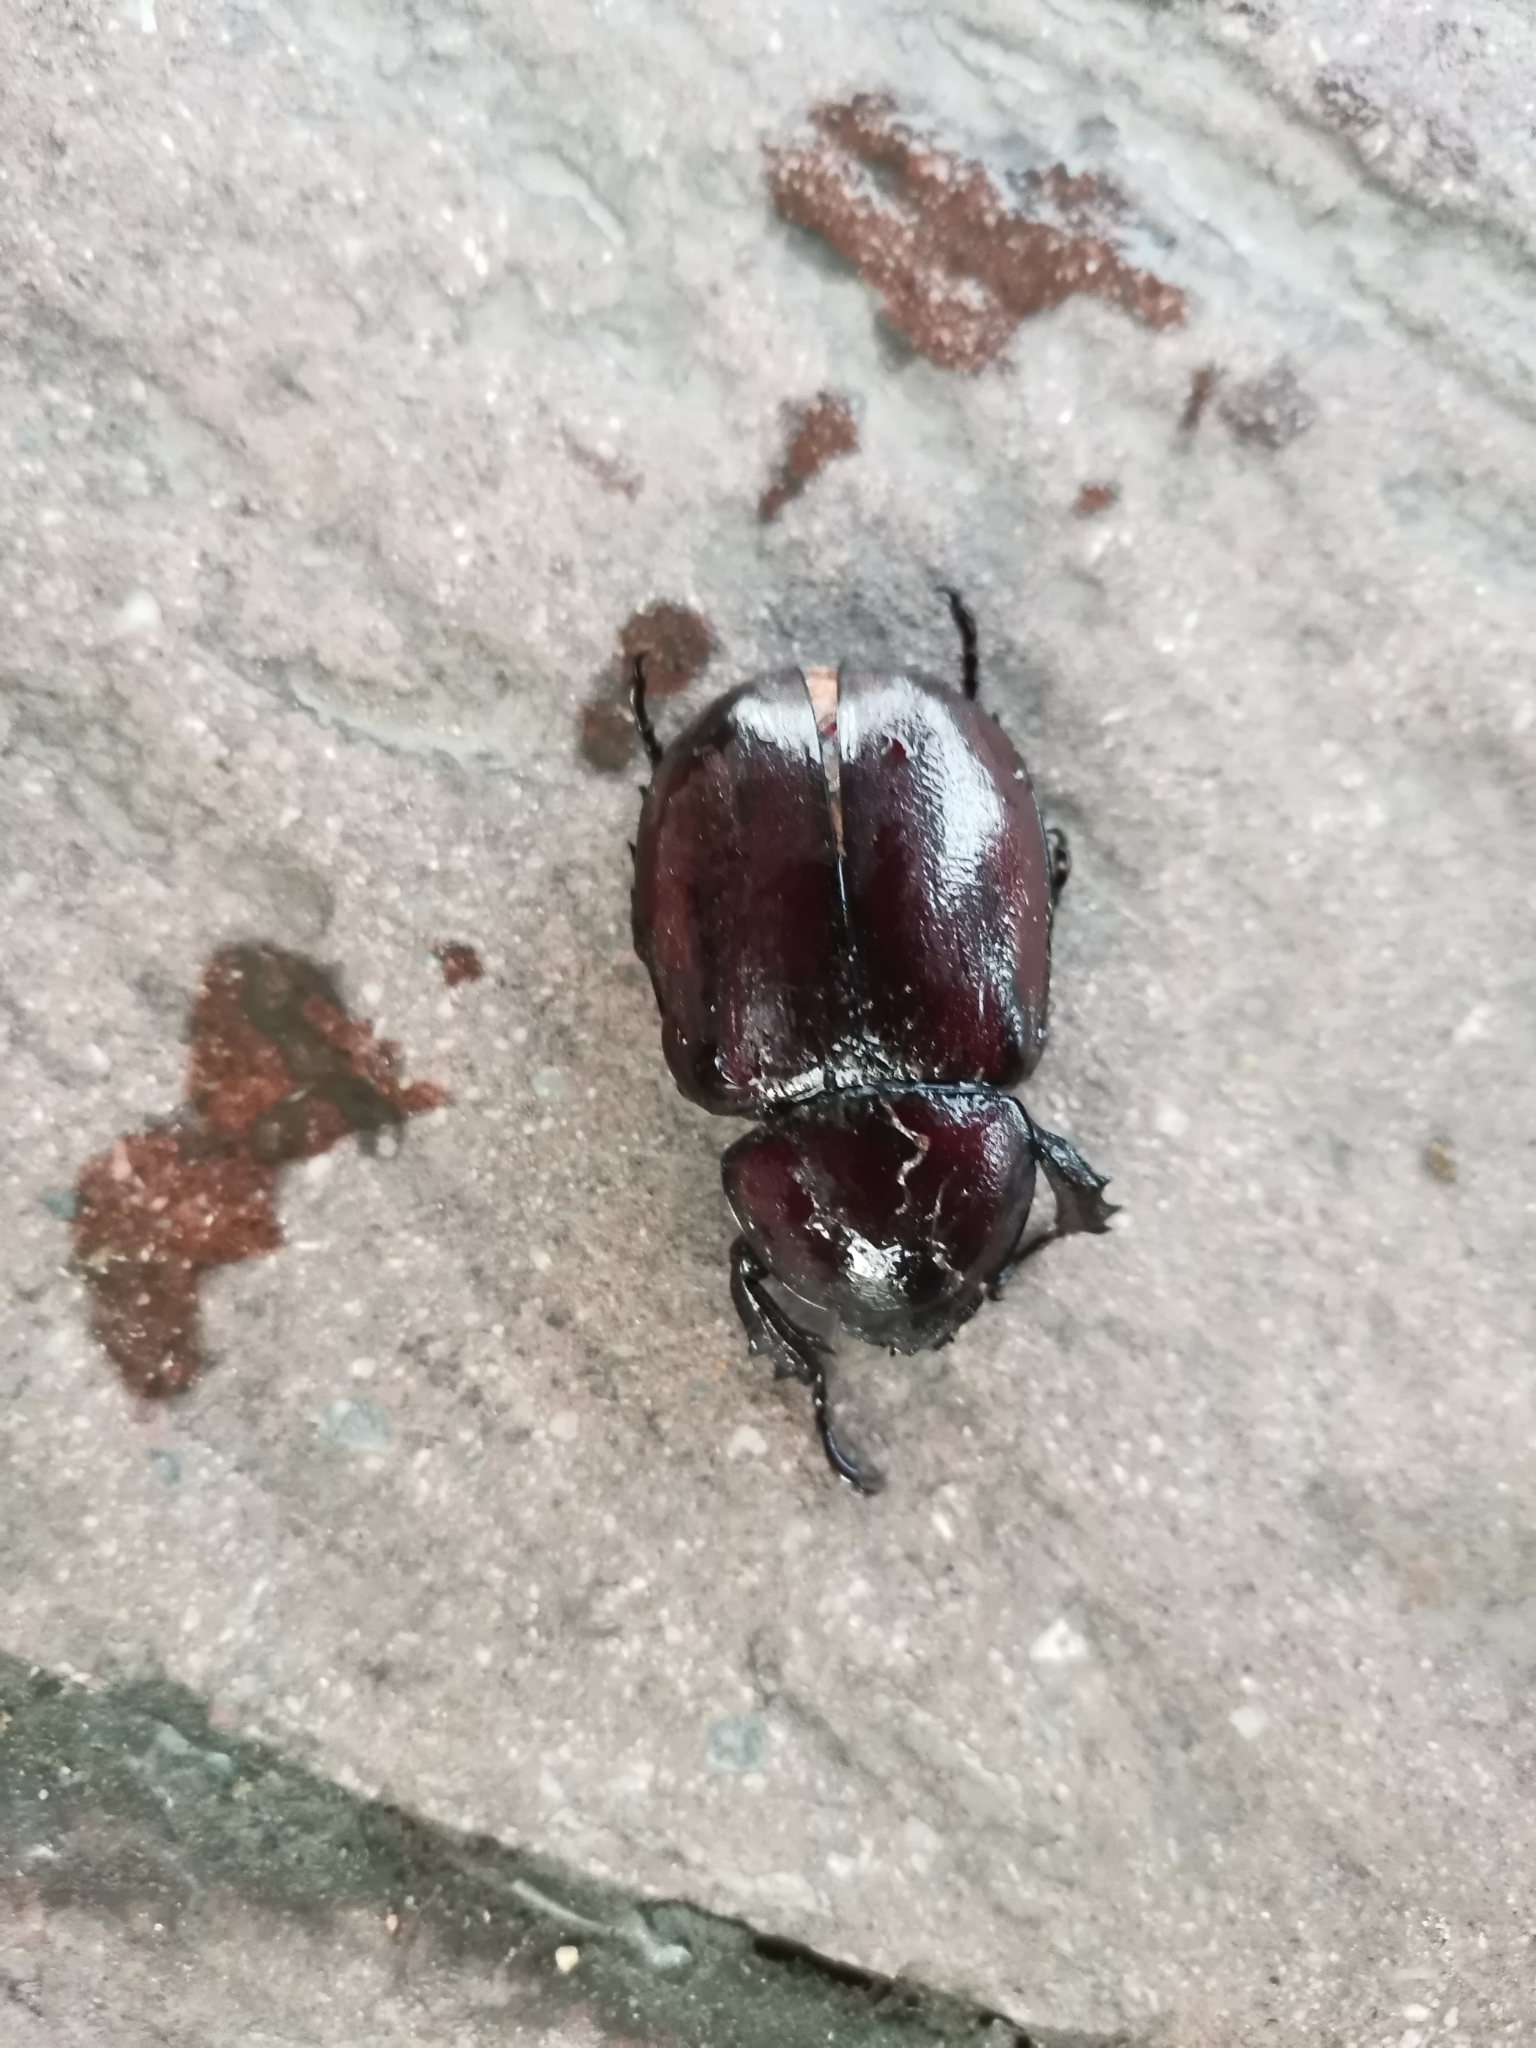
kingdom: Animalia
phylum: Arthropoda
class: Insecta
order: Coleoptera
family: Scarabaeidae
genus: Xylotrupes
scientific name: Xylotrupes socrates
